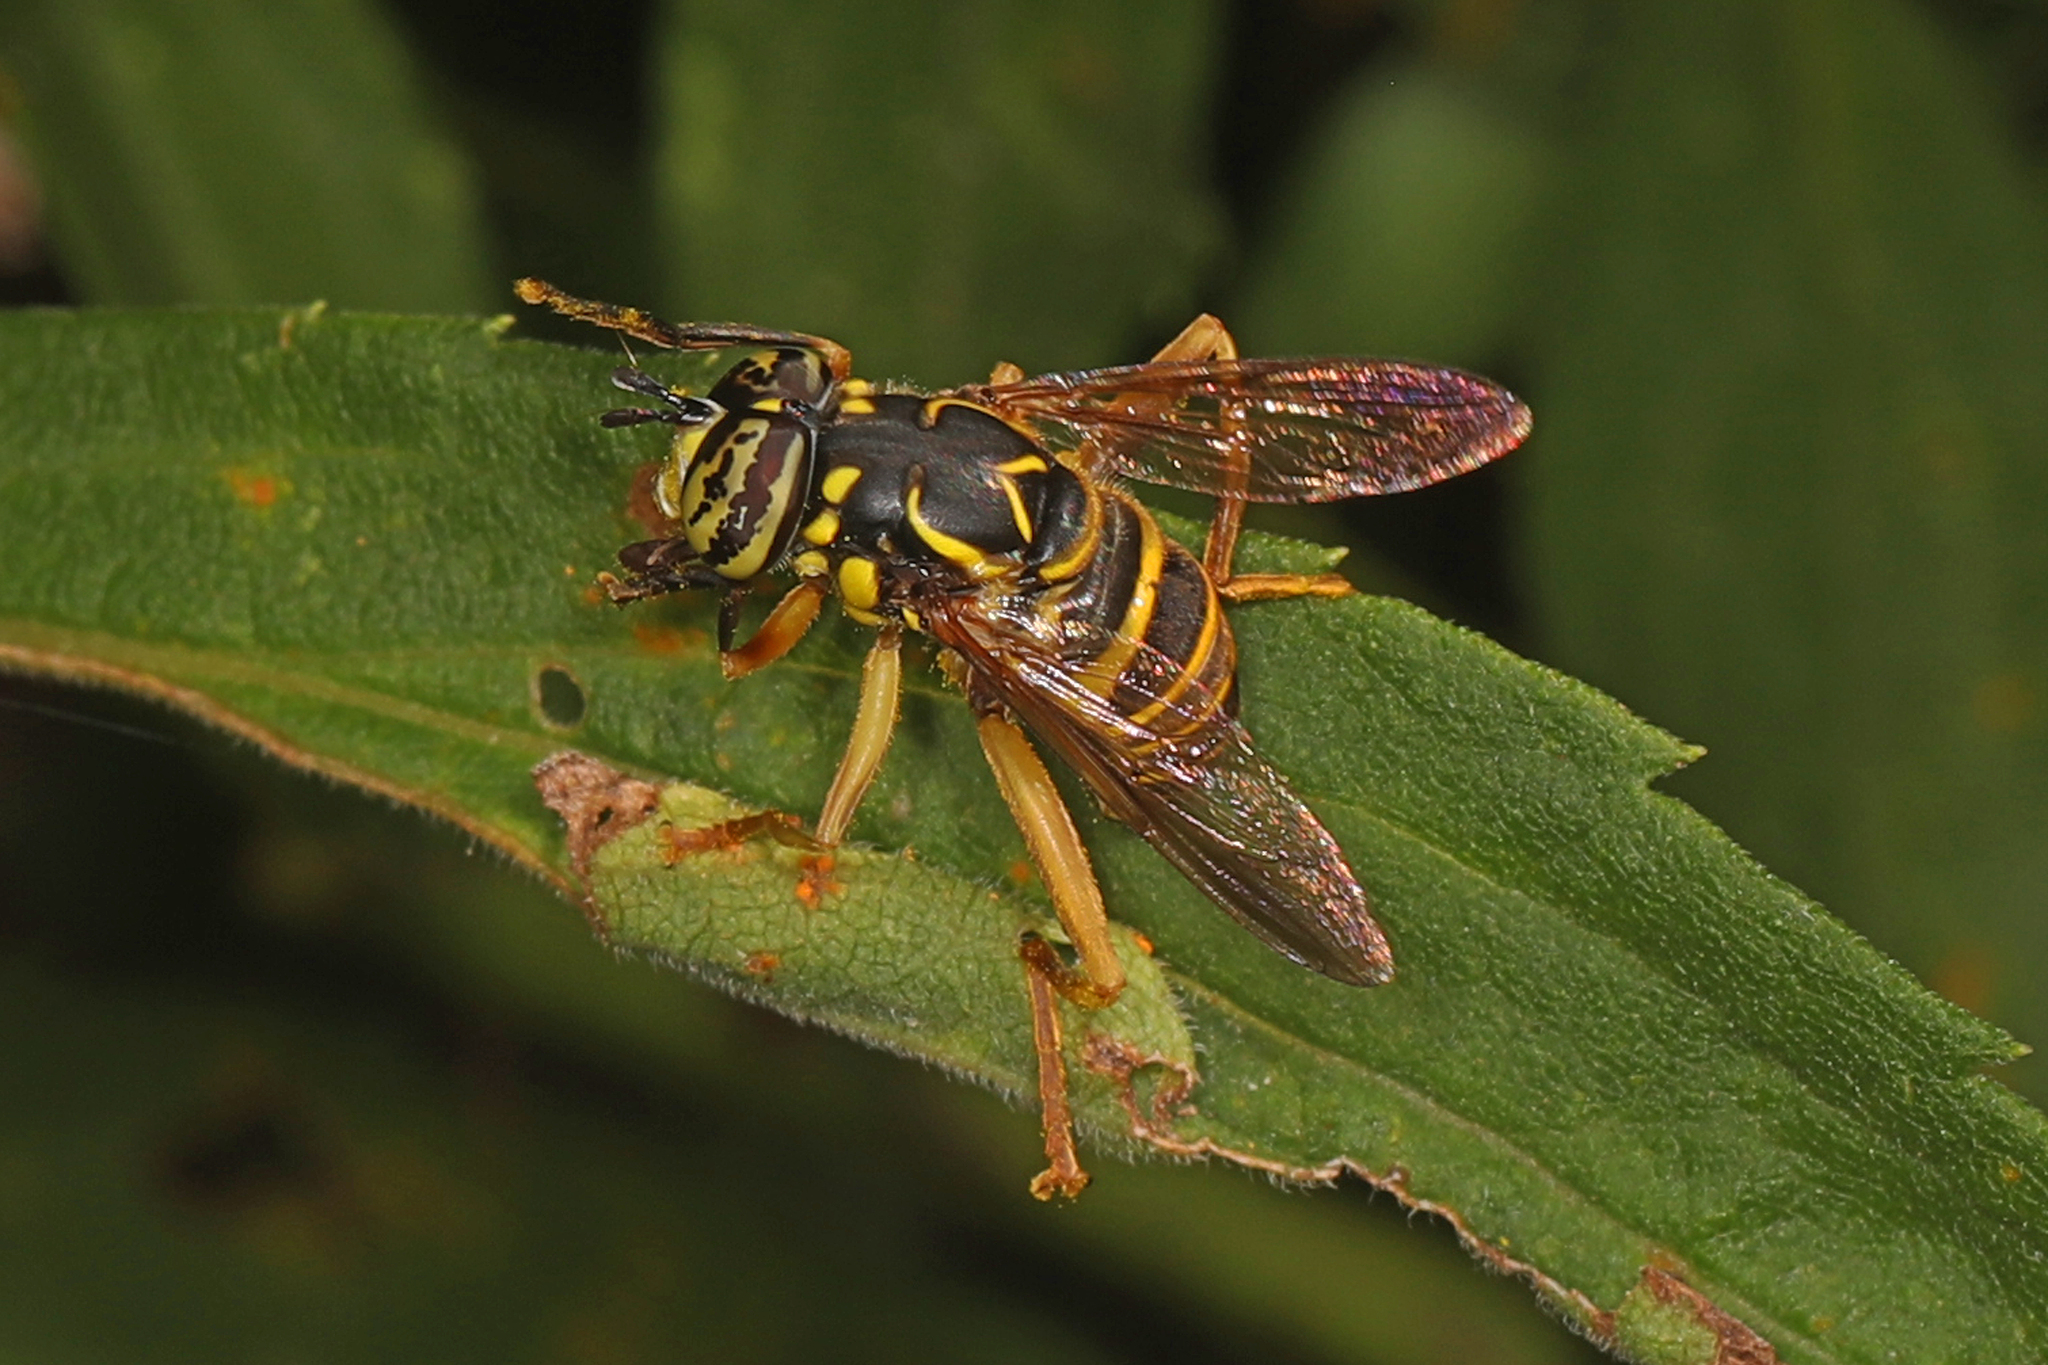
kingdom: Animalia
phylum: Arthropoda
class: Insecta
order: Diptera
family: Syrphidae
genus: Spilomyia
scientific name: Spilomyia longicornis
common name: Eastern hornet fly
